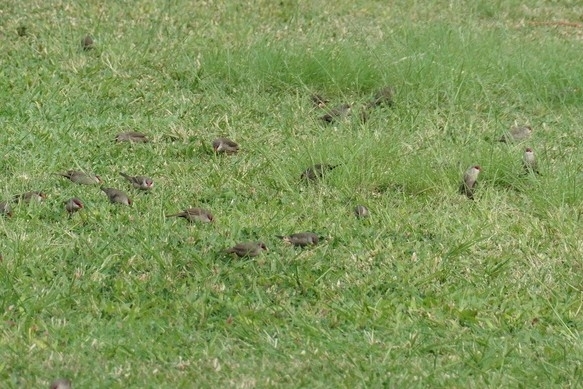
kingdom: Animalia
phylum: Chordata
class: Aves
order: Passeriformes
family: Estrildidae
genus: Estrilda
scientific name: Estrilda astrild
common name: Common waxbill
